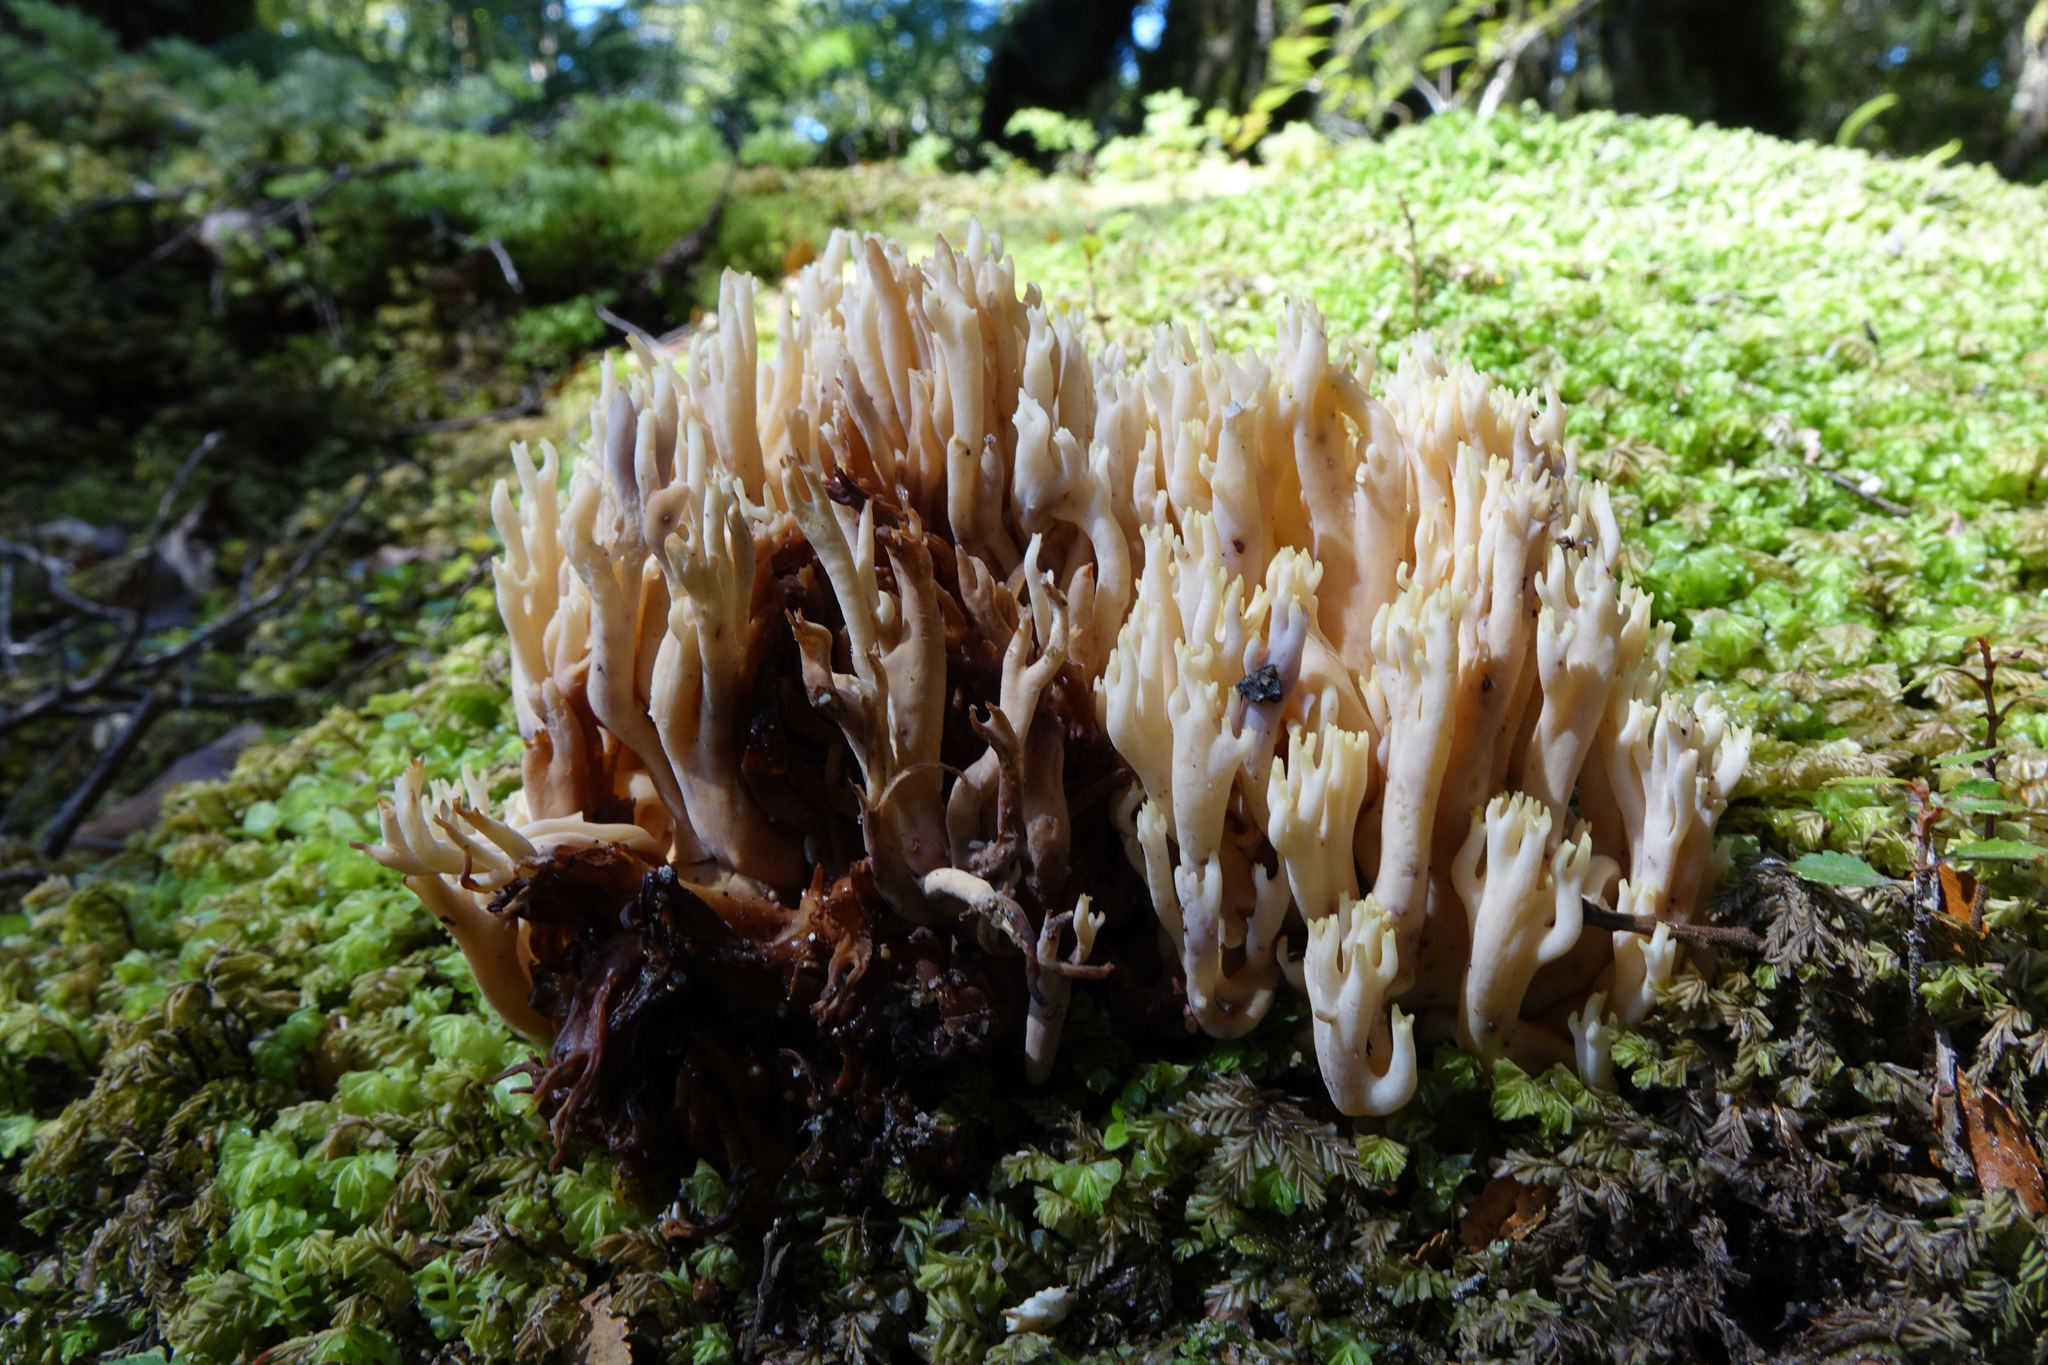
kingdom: Fungi
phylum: Basidiomycota
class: Agaricomycetes
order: Gomphales
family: Gomphaceae
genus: Ramaria
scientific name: Ramaria
